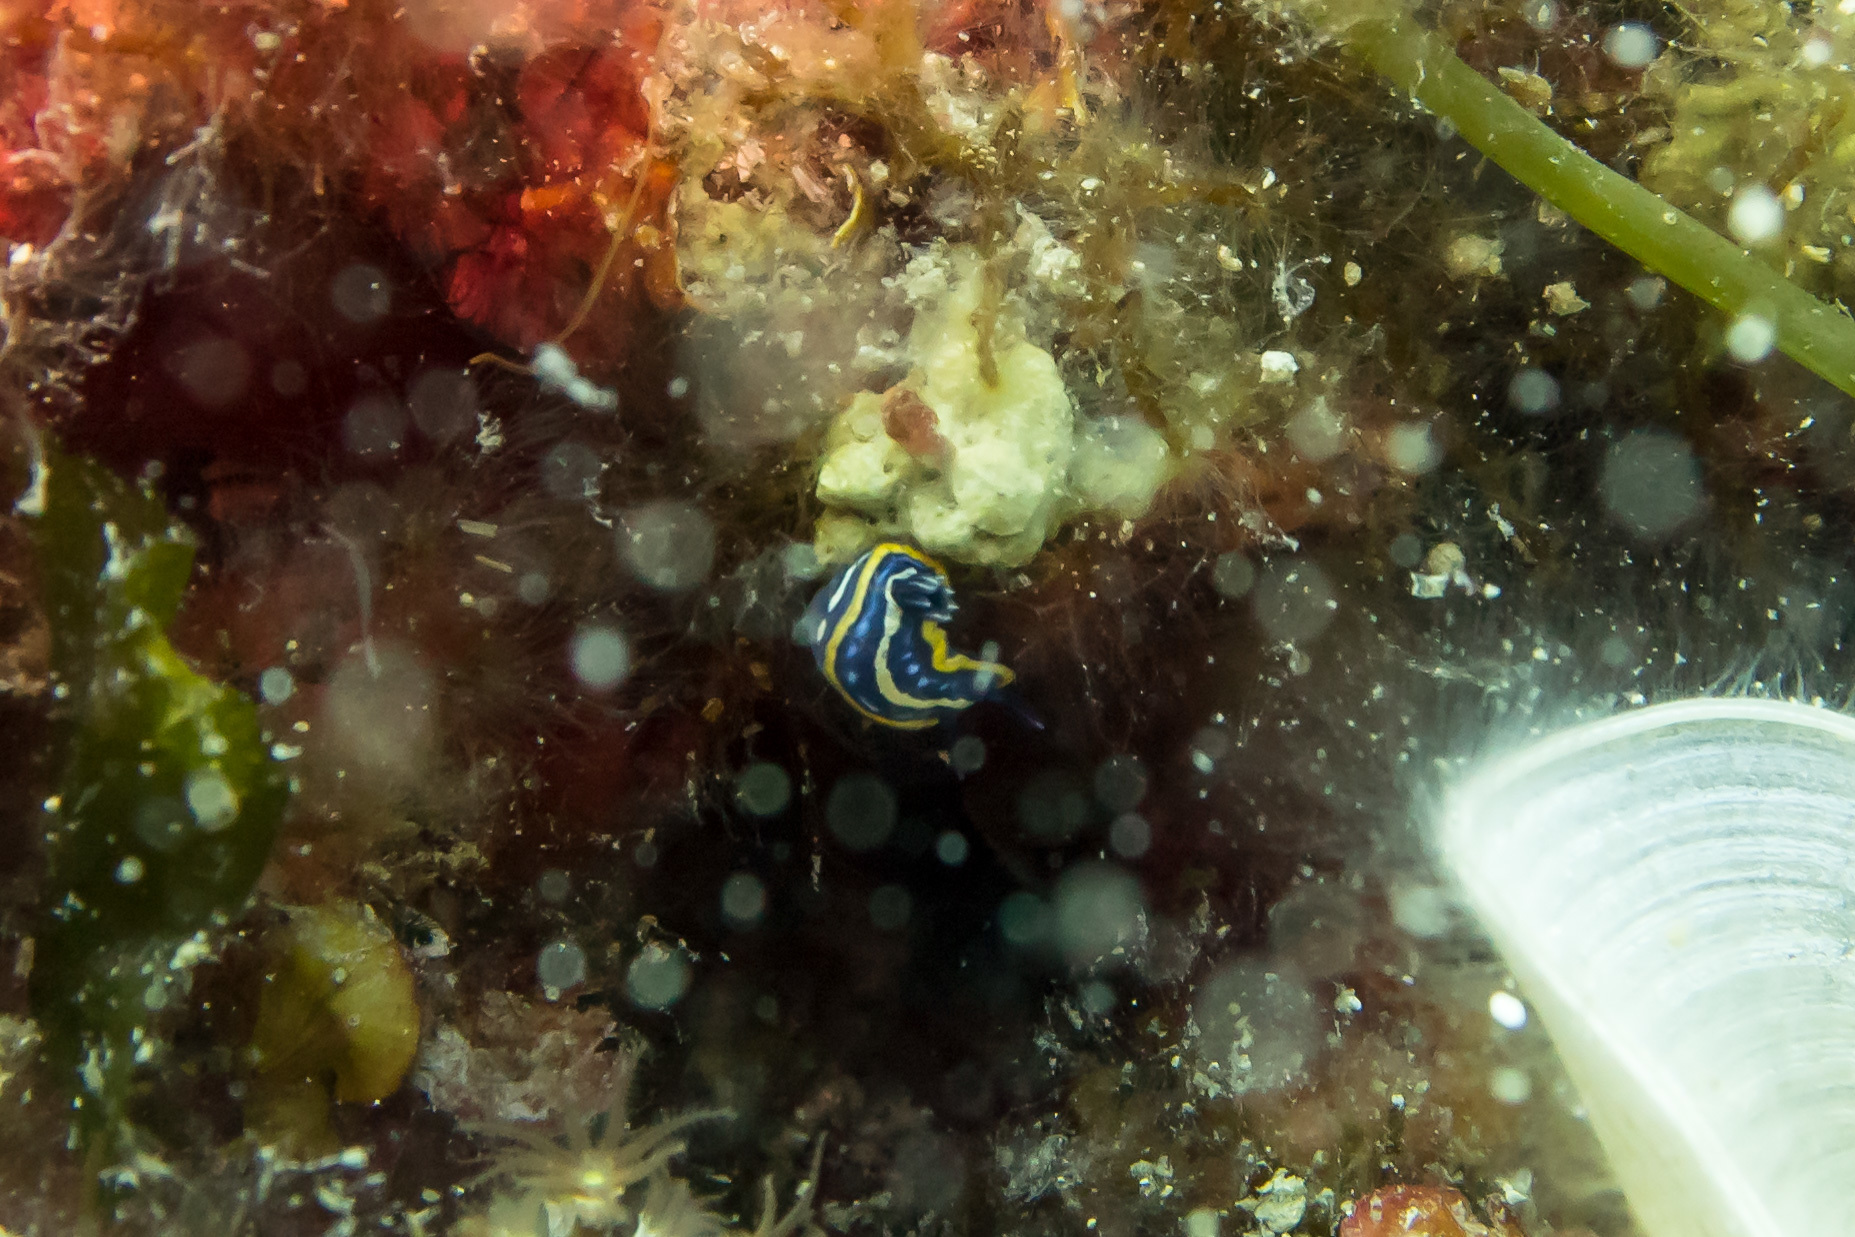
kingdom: Animalia
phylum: Mollusca
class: Gastropoda
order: Nudibranchia
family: Chromodorididae
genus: Felimare
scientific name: Felimare tricolor
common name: Tricolor doris
